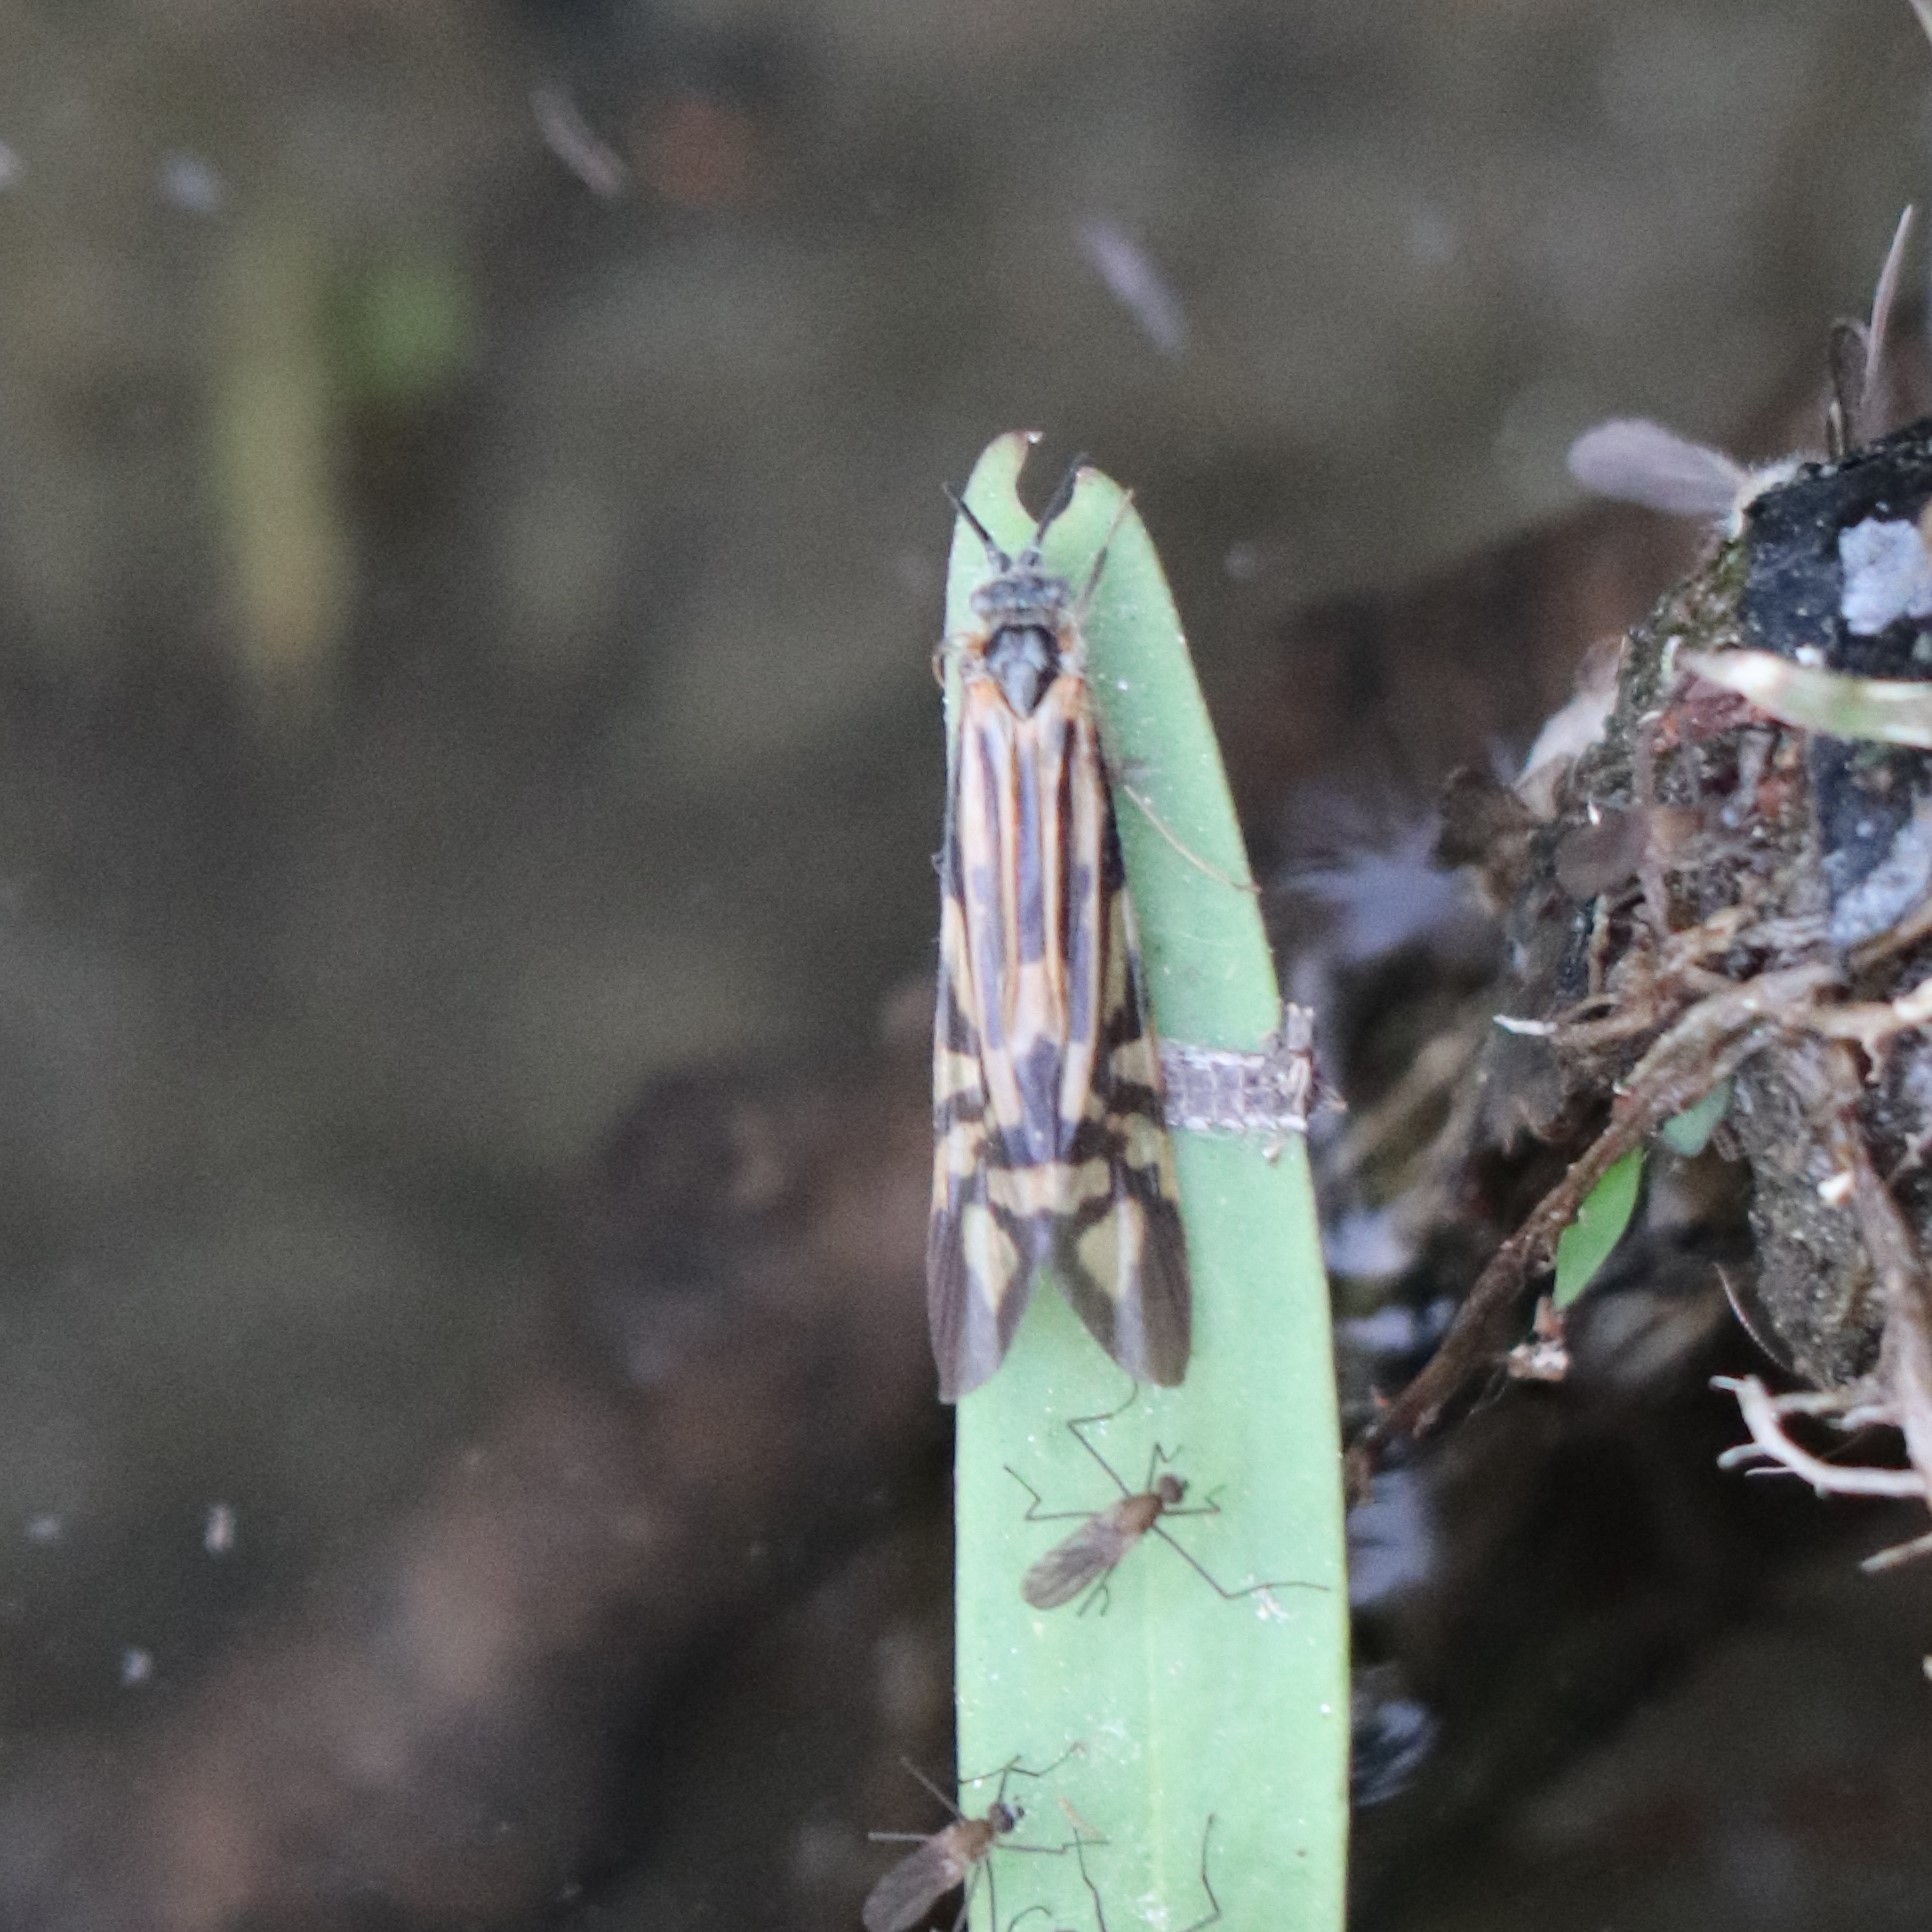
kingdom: Animalia
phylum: Arthropoda
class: Insecta
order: Trichoptera
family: Hydropsychidae
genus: Macrostemum
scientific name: Macrostemum zebratum
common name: Zebra caddisfly
